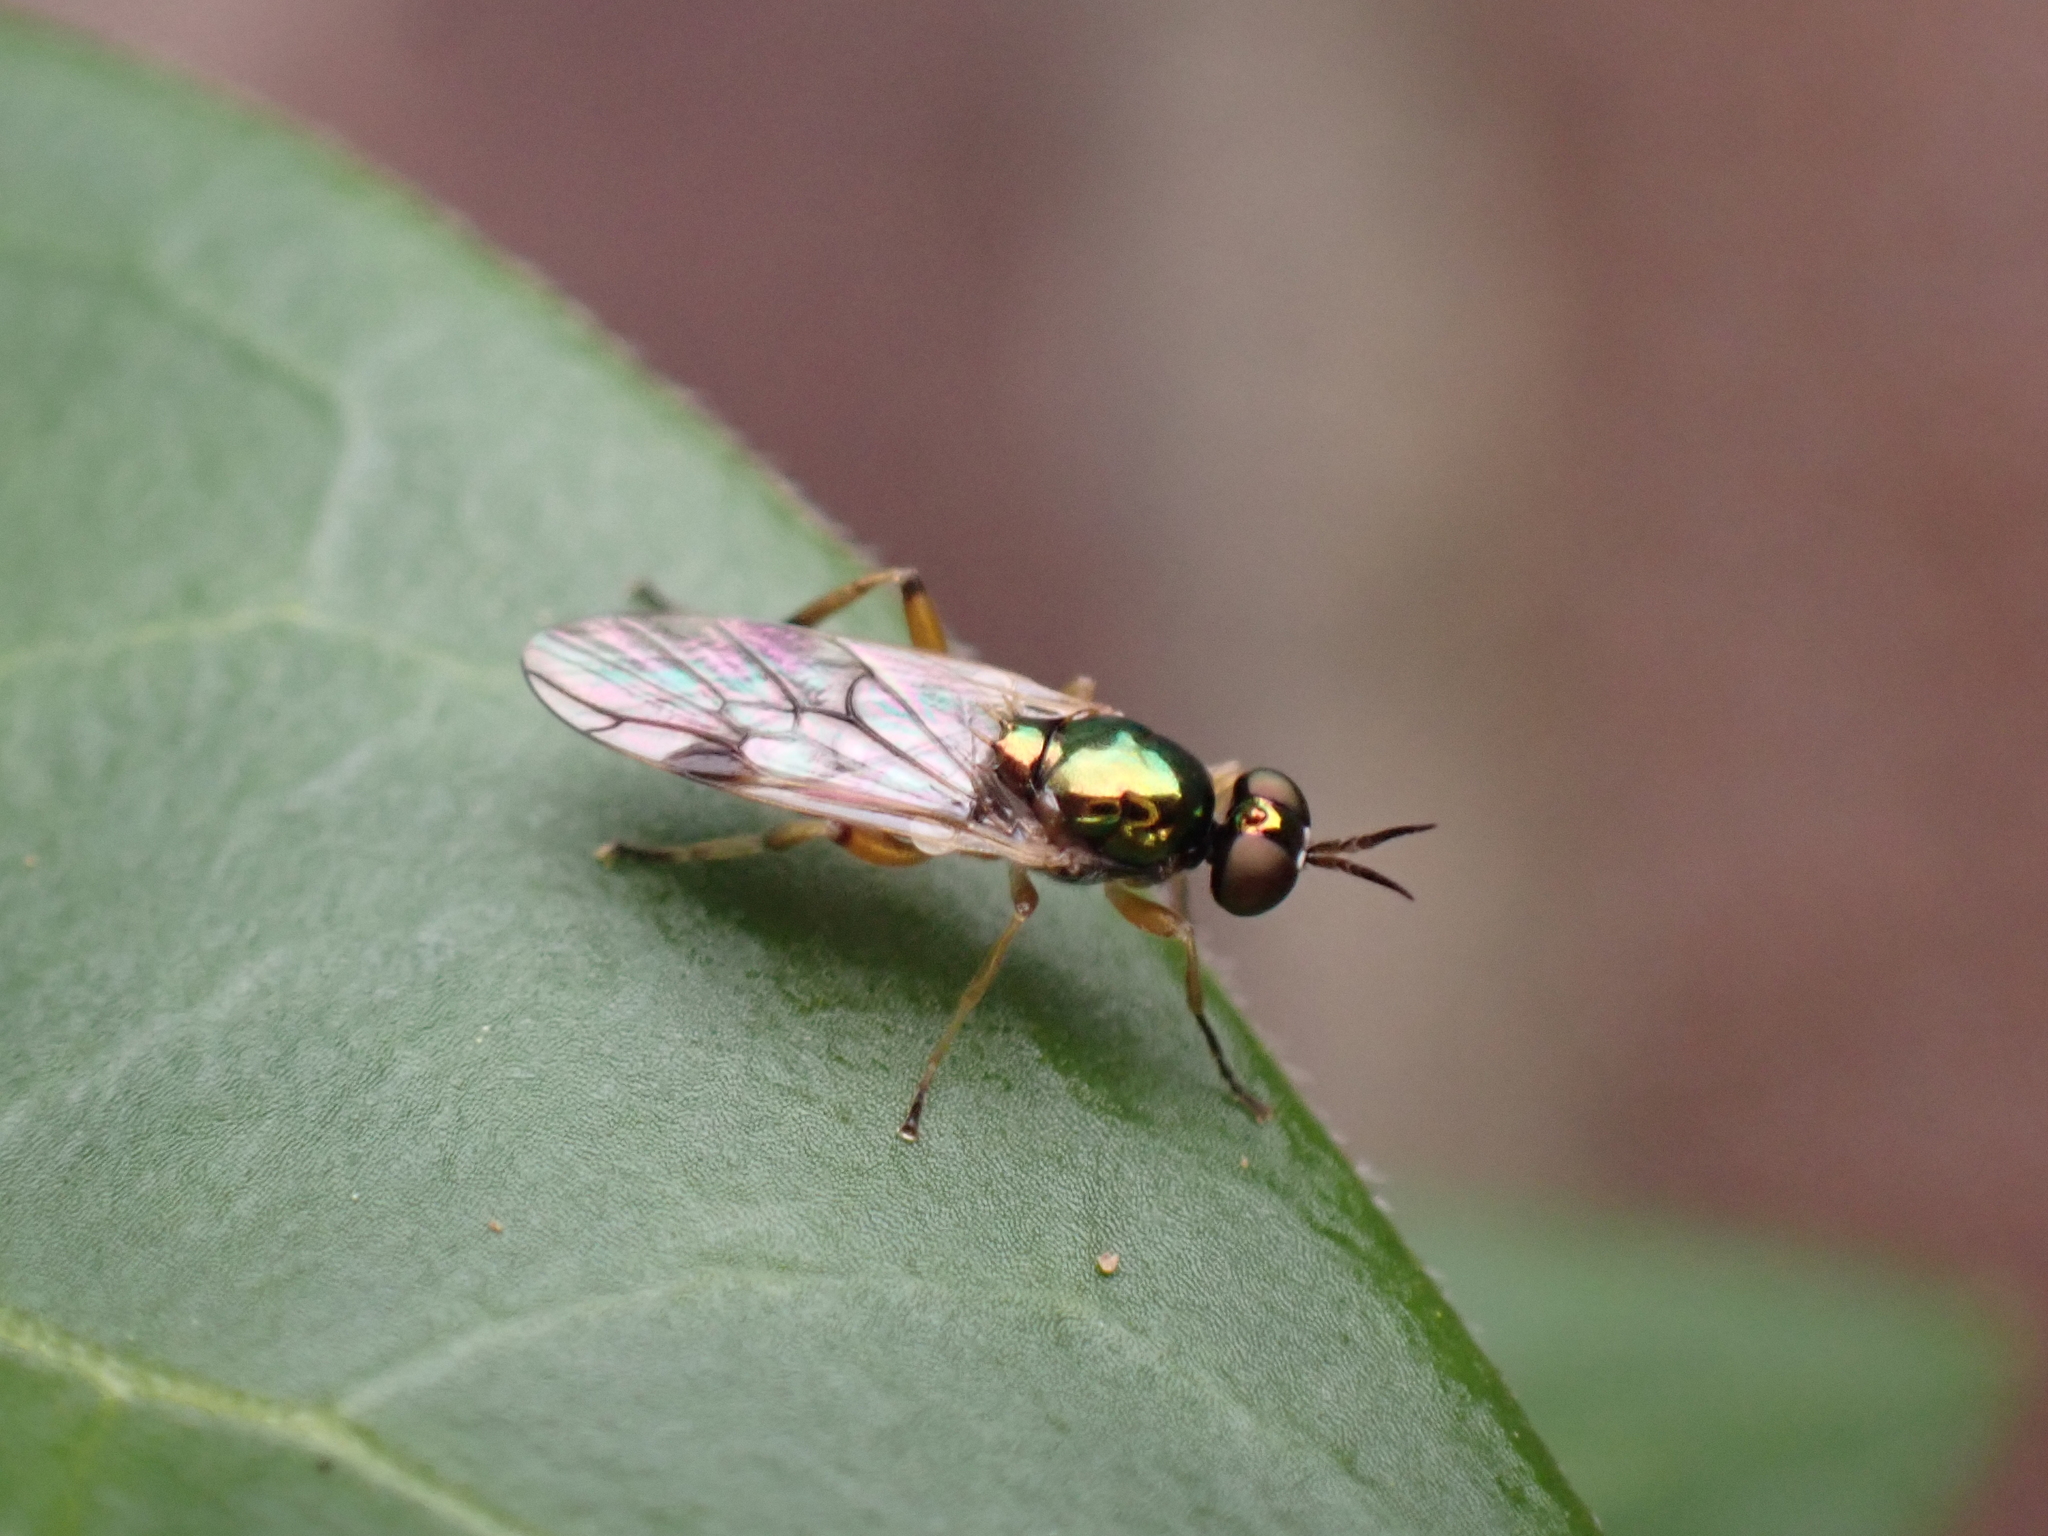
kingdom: Animalia
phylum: Arthropoda
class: Insecta
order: Diptera
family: Stratiomyidae
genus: Actina
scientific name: Actina viridis
